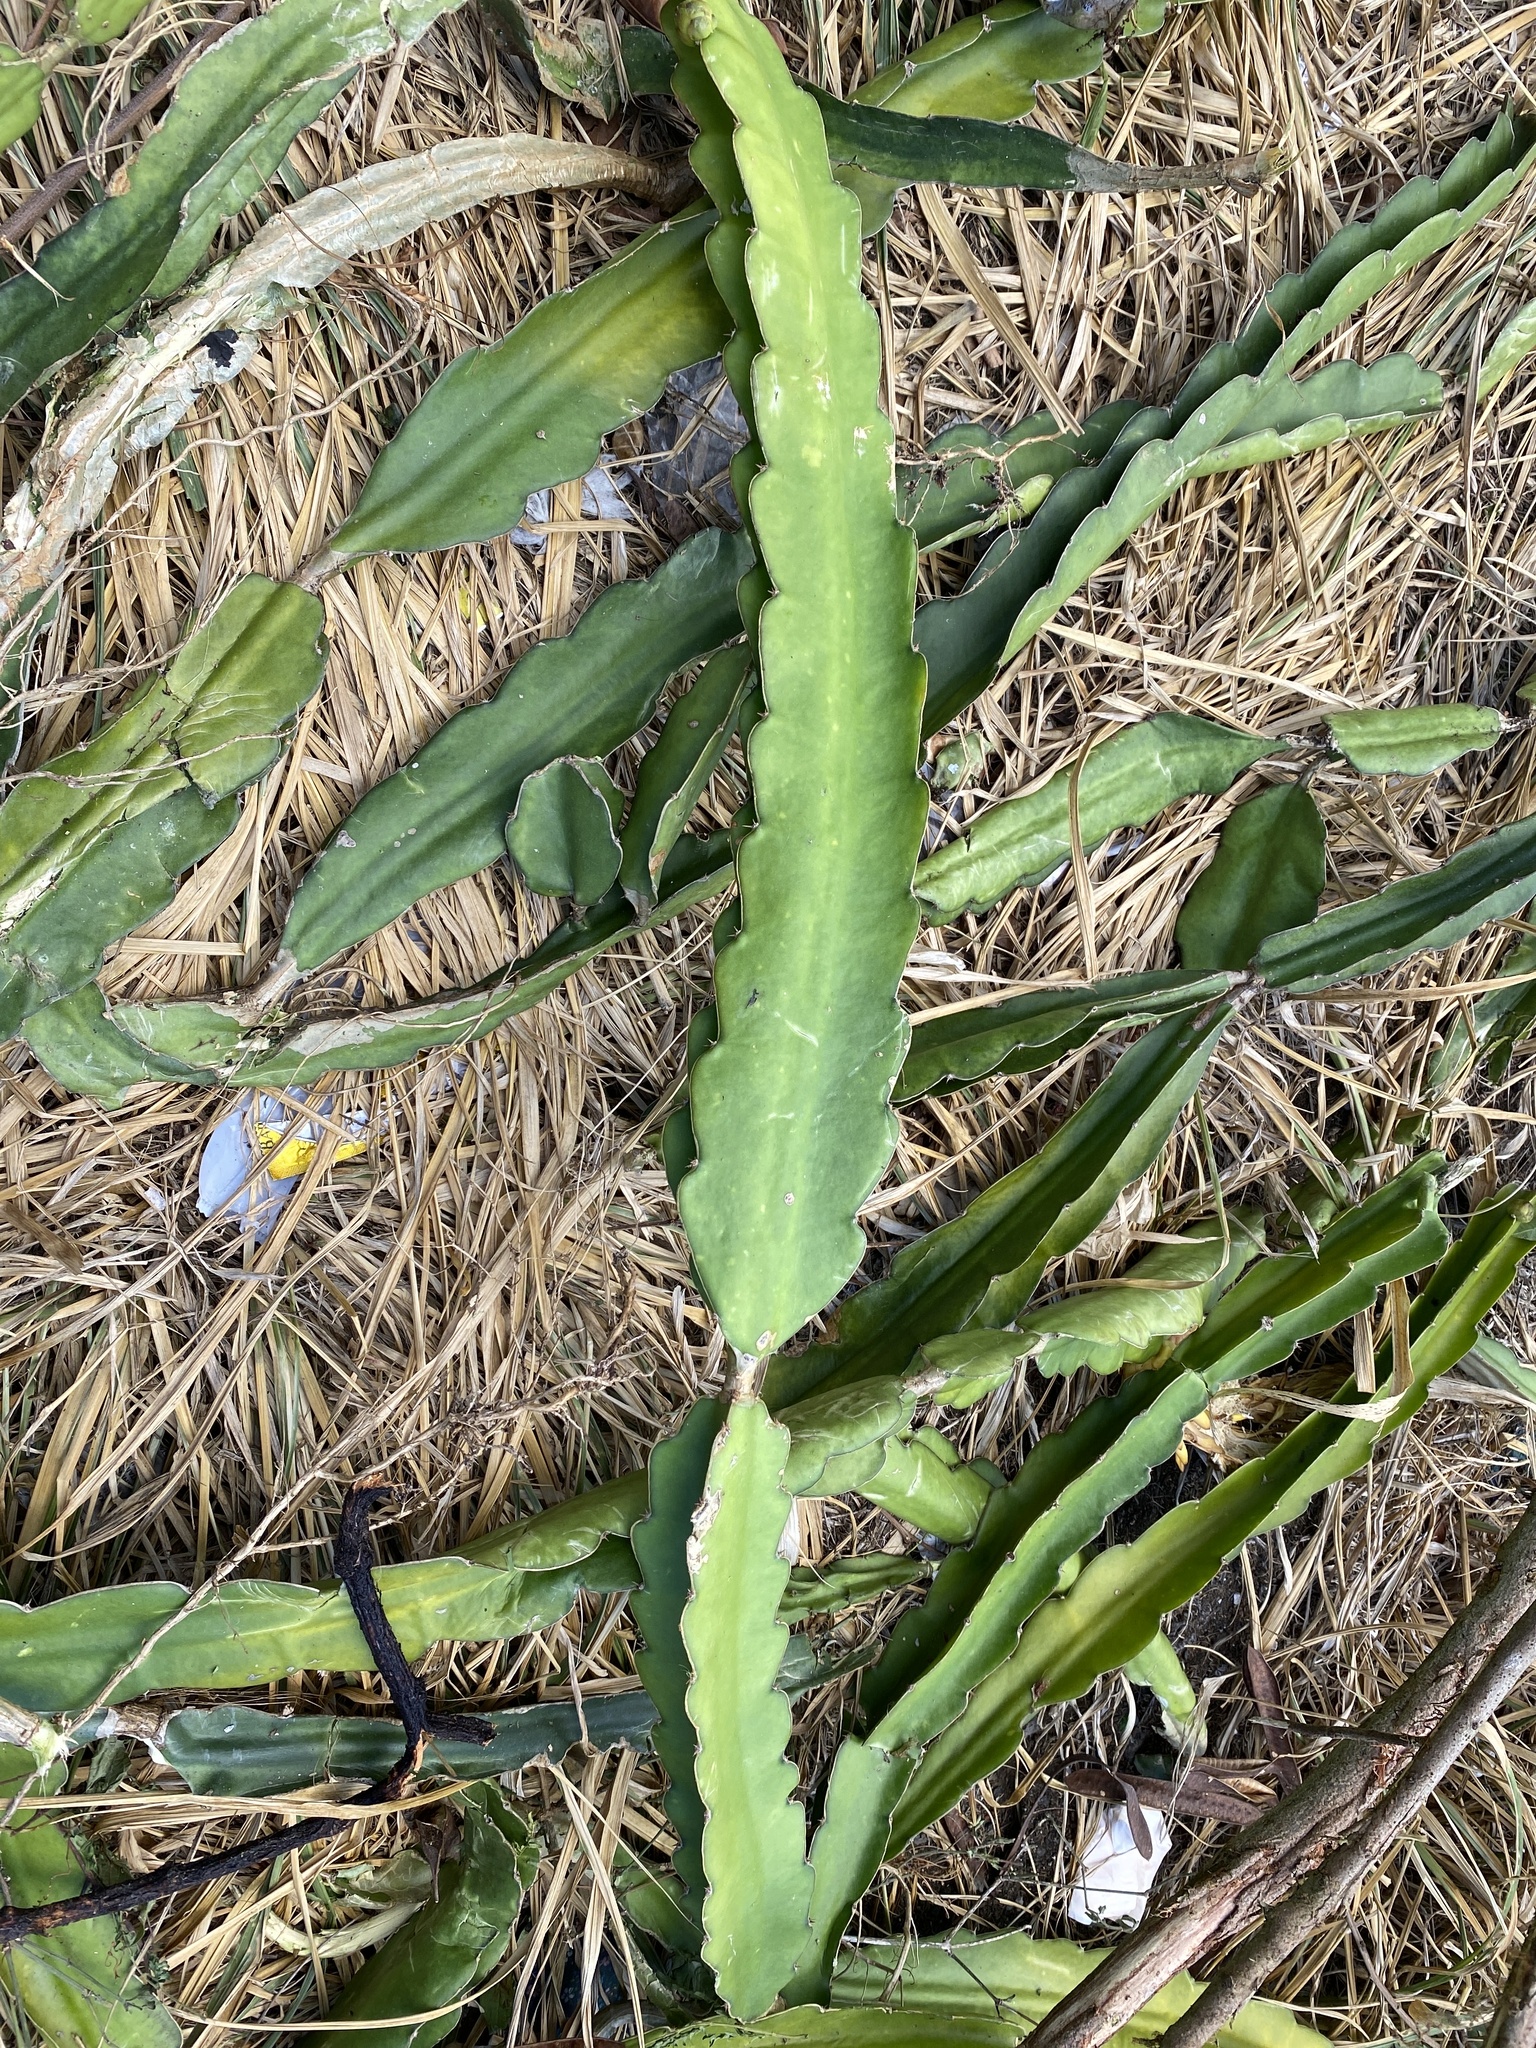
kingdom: Plantae
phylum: Tracheophyta
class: Magnoliopsida
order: Caryophyllales
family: Cactaceae
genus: Selenicereus
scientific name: Selenicereus undatus
